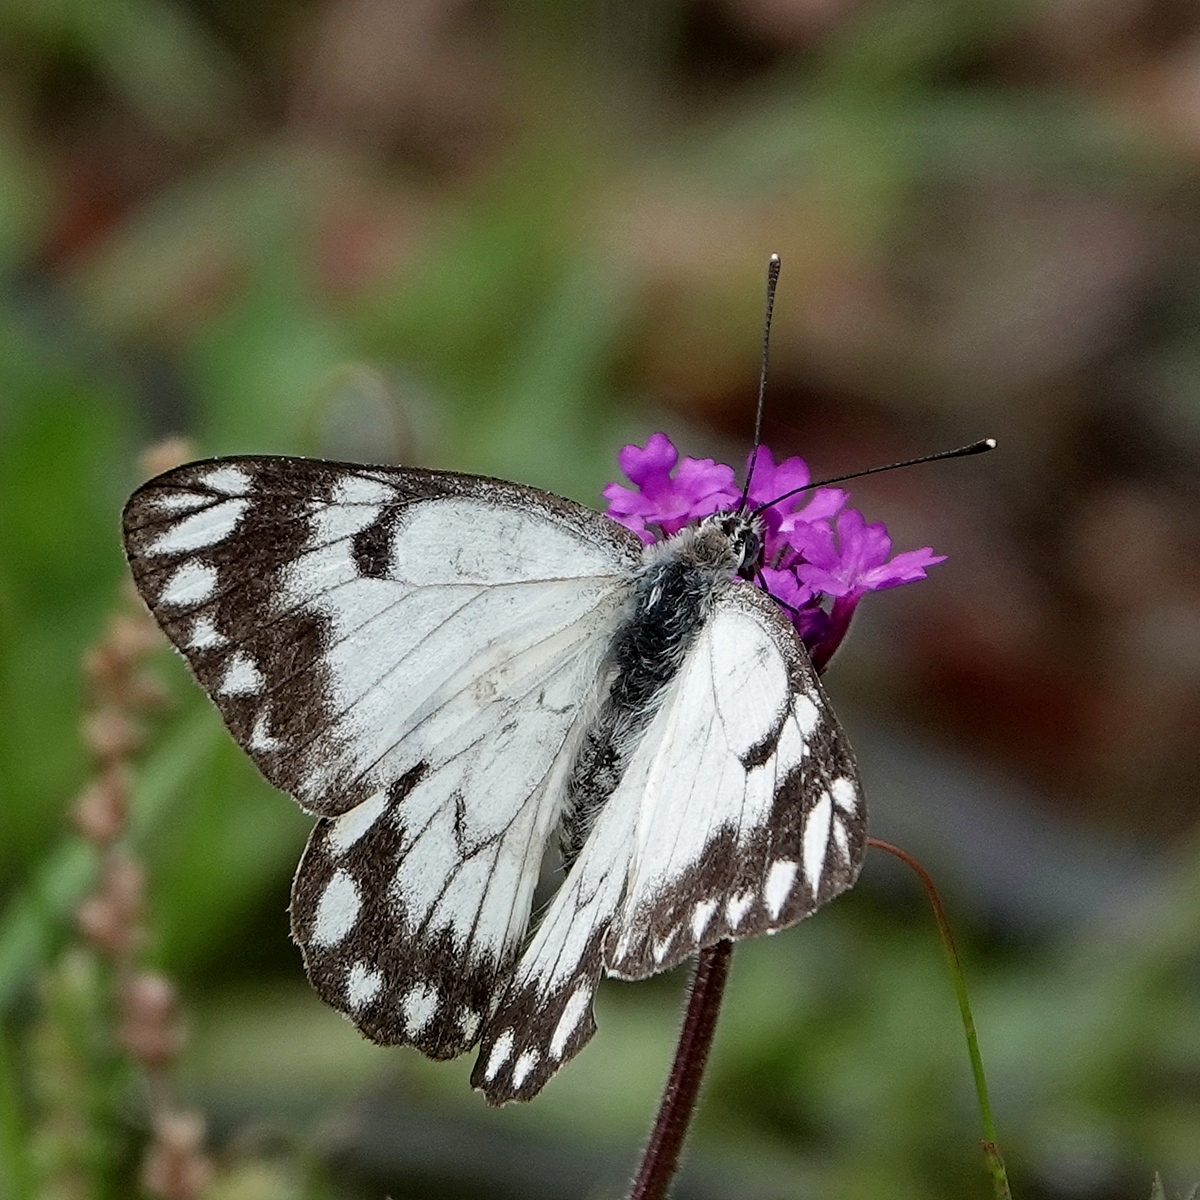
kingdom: Animalia
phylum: Arthropoda
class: Insecta
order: Lepidoptera
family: Pieridae
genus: Belenois
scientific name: Belenois java
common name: Caper white
